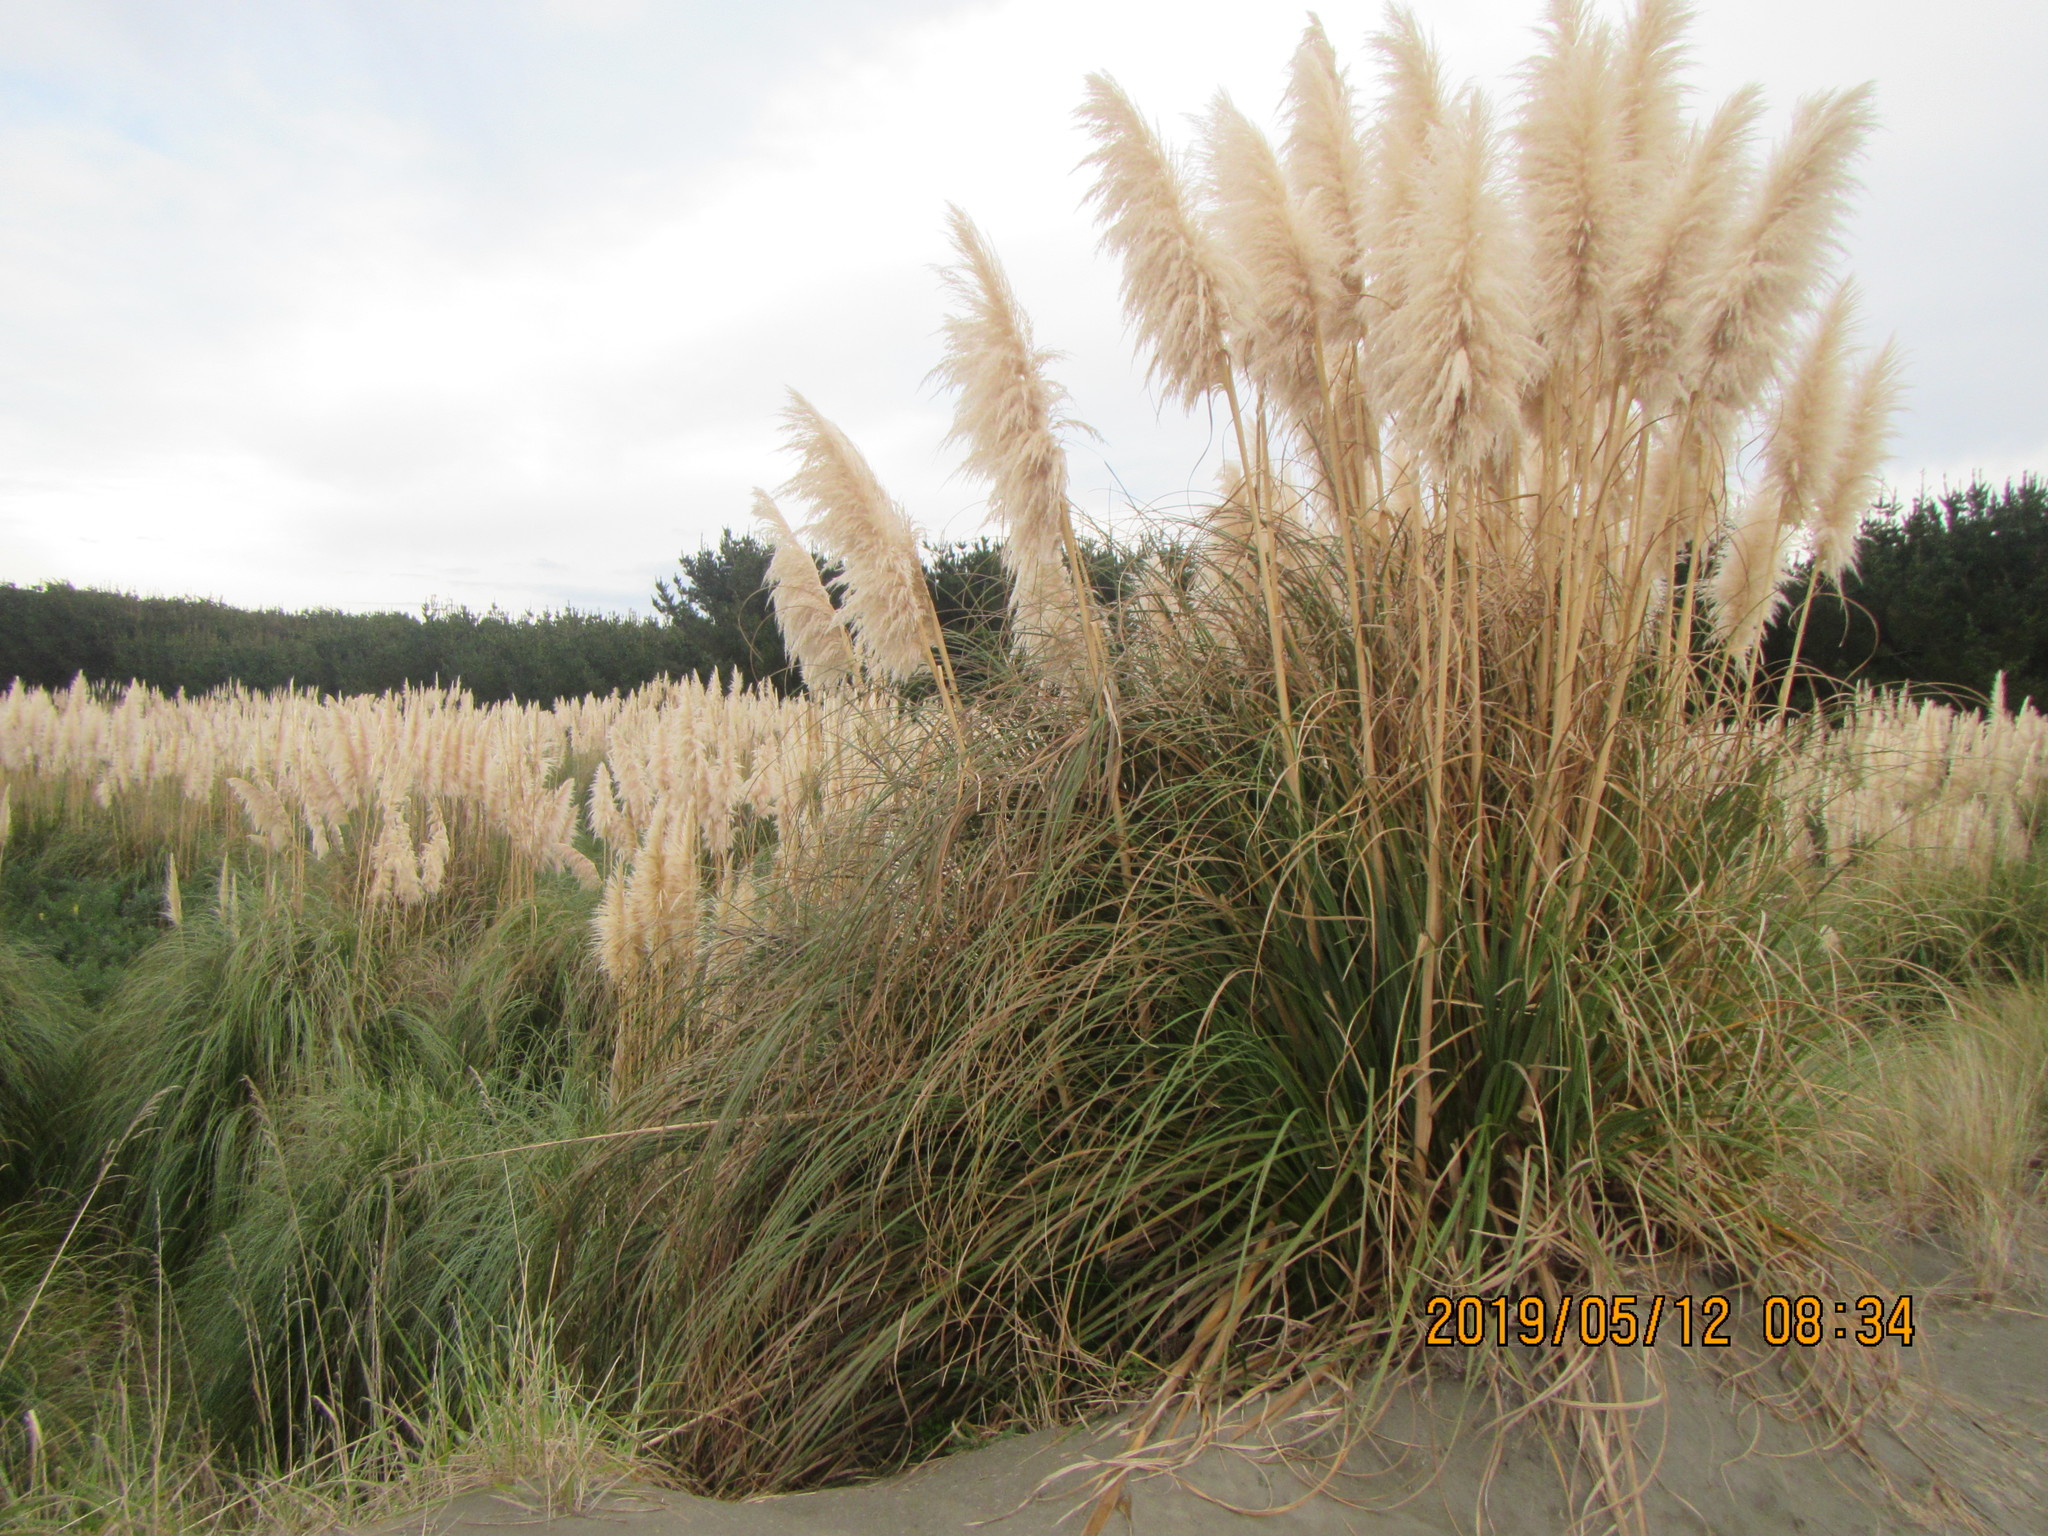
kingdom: Plantae
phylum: Tracheophyta
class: Liliopsida
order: Poales
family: Poaceae
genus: Cortaderia
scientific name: Cortaderia selloana
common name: Uruguayan pampas grass
